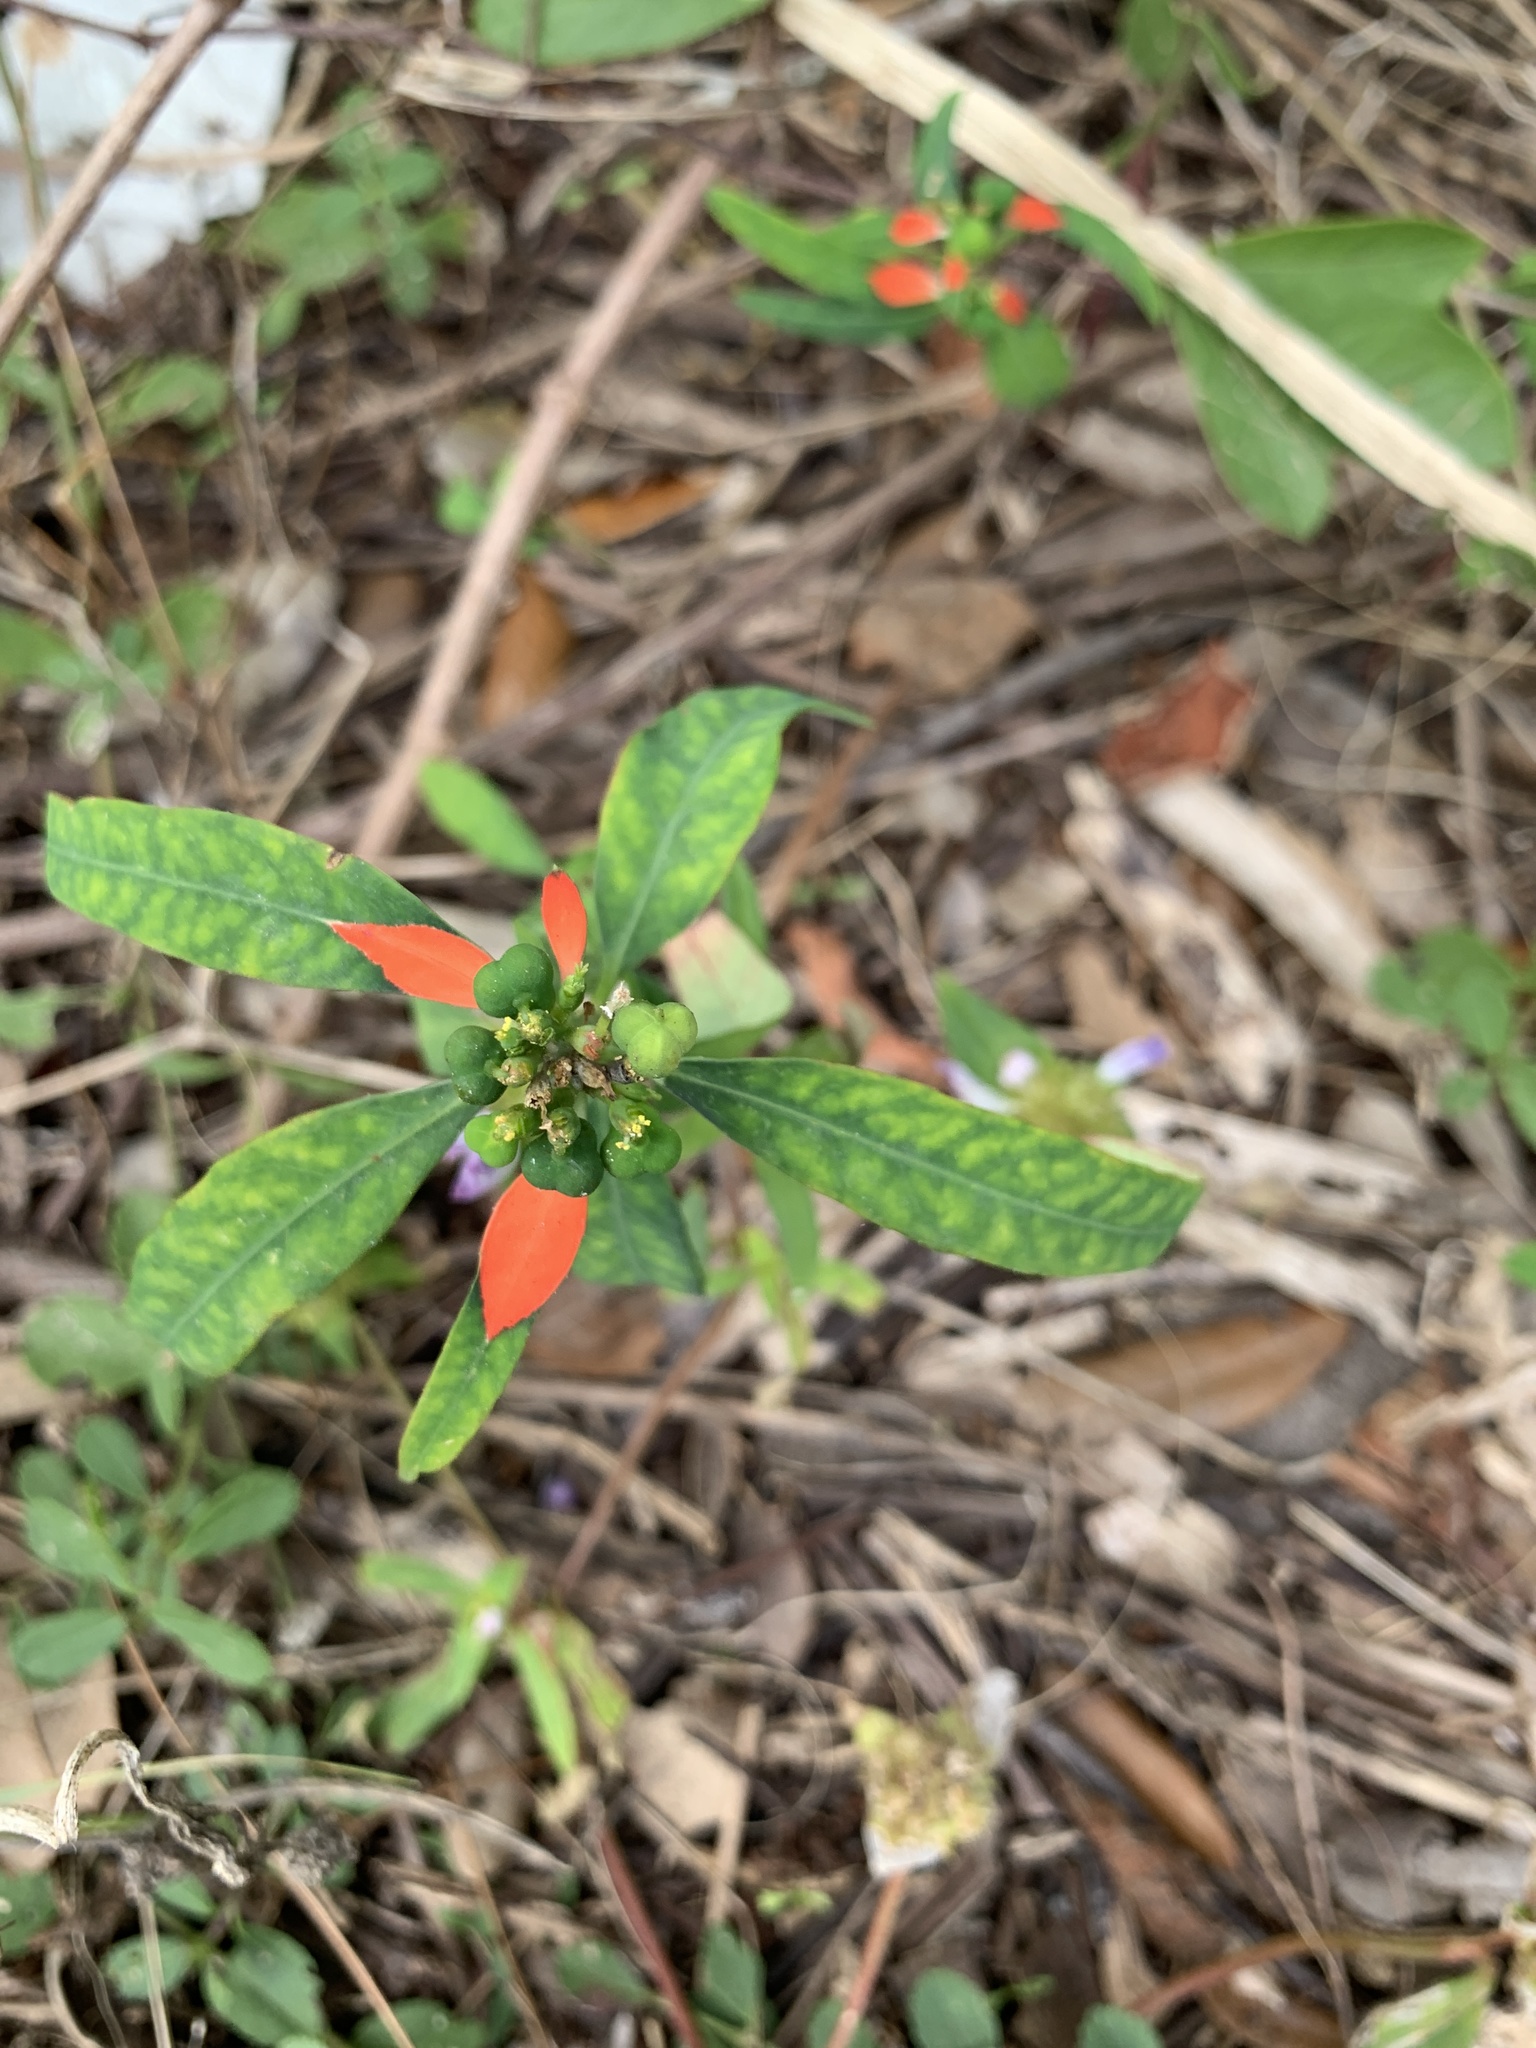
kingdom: Plantae
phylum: Tracheophyta
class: Magnoliopsida
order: Malpighiales
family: Euphorbiaceae
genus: Euphorbia
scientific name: Euphorbia heterophylla
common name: Mexican fireplant
